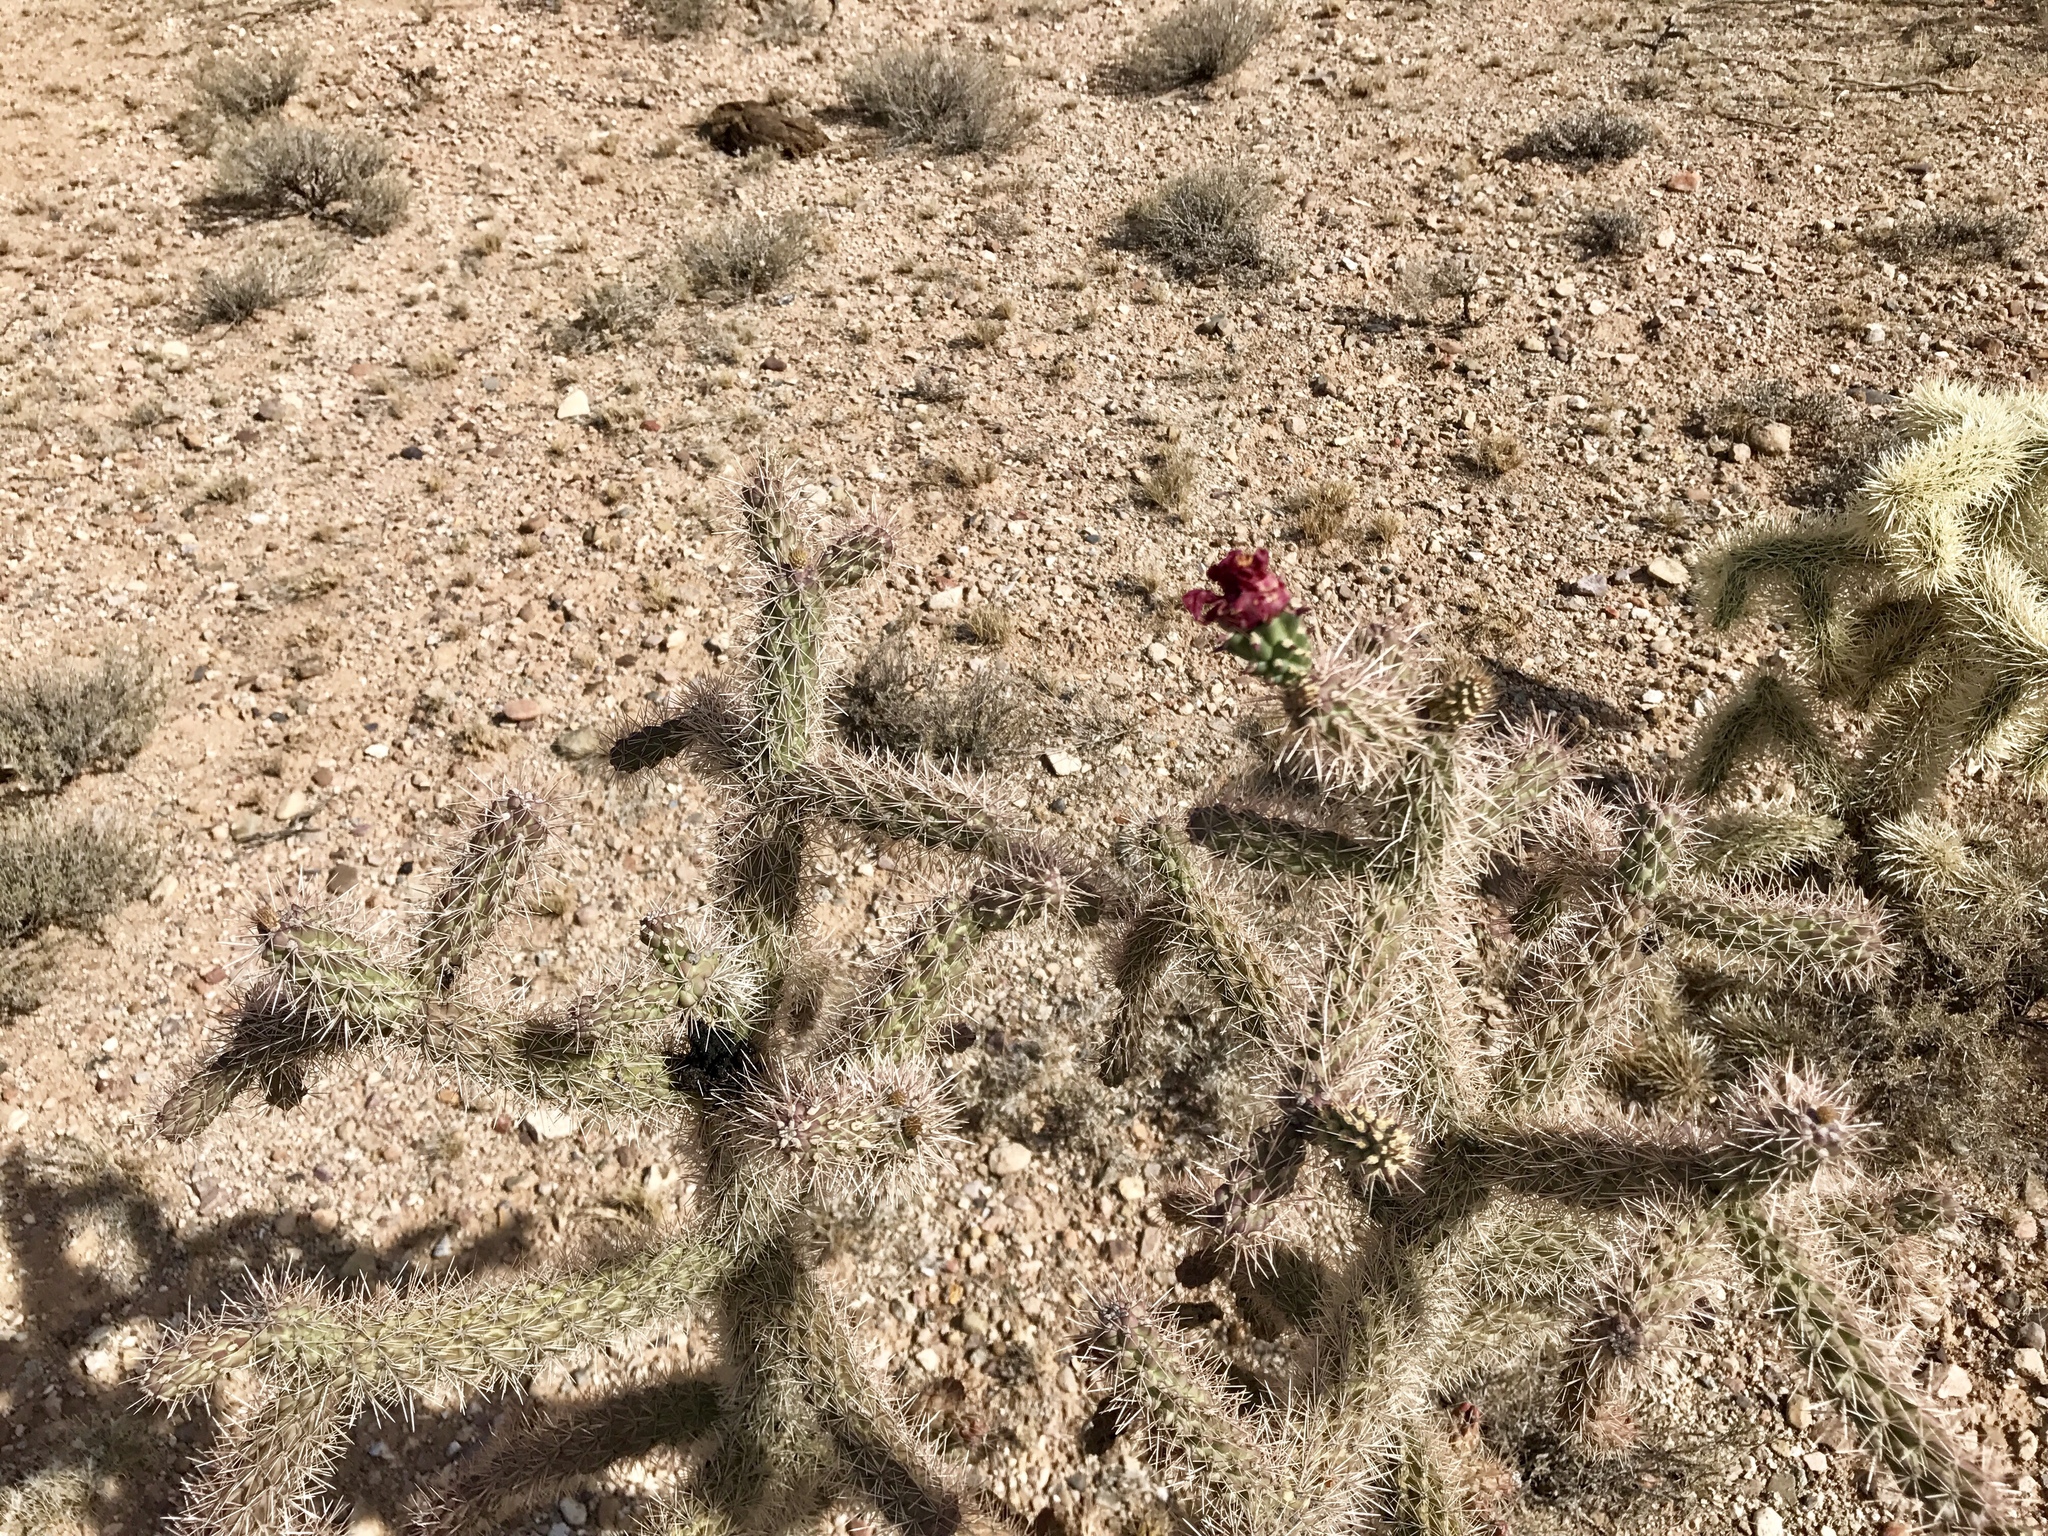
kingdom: Plantae
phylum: Tracheophyta
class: Magnoliopsida
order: Caryophyllales
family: Cactaceae
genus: Cylindropuntia
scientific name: Cylindropuntia imbricata
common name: Candelabrum cactus
